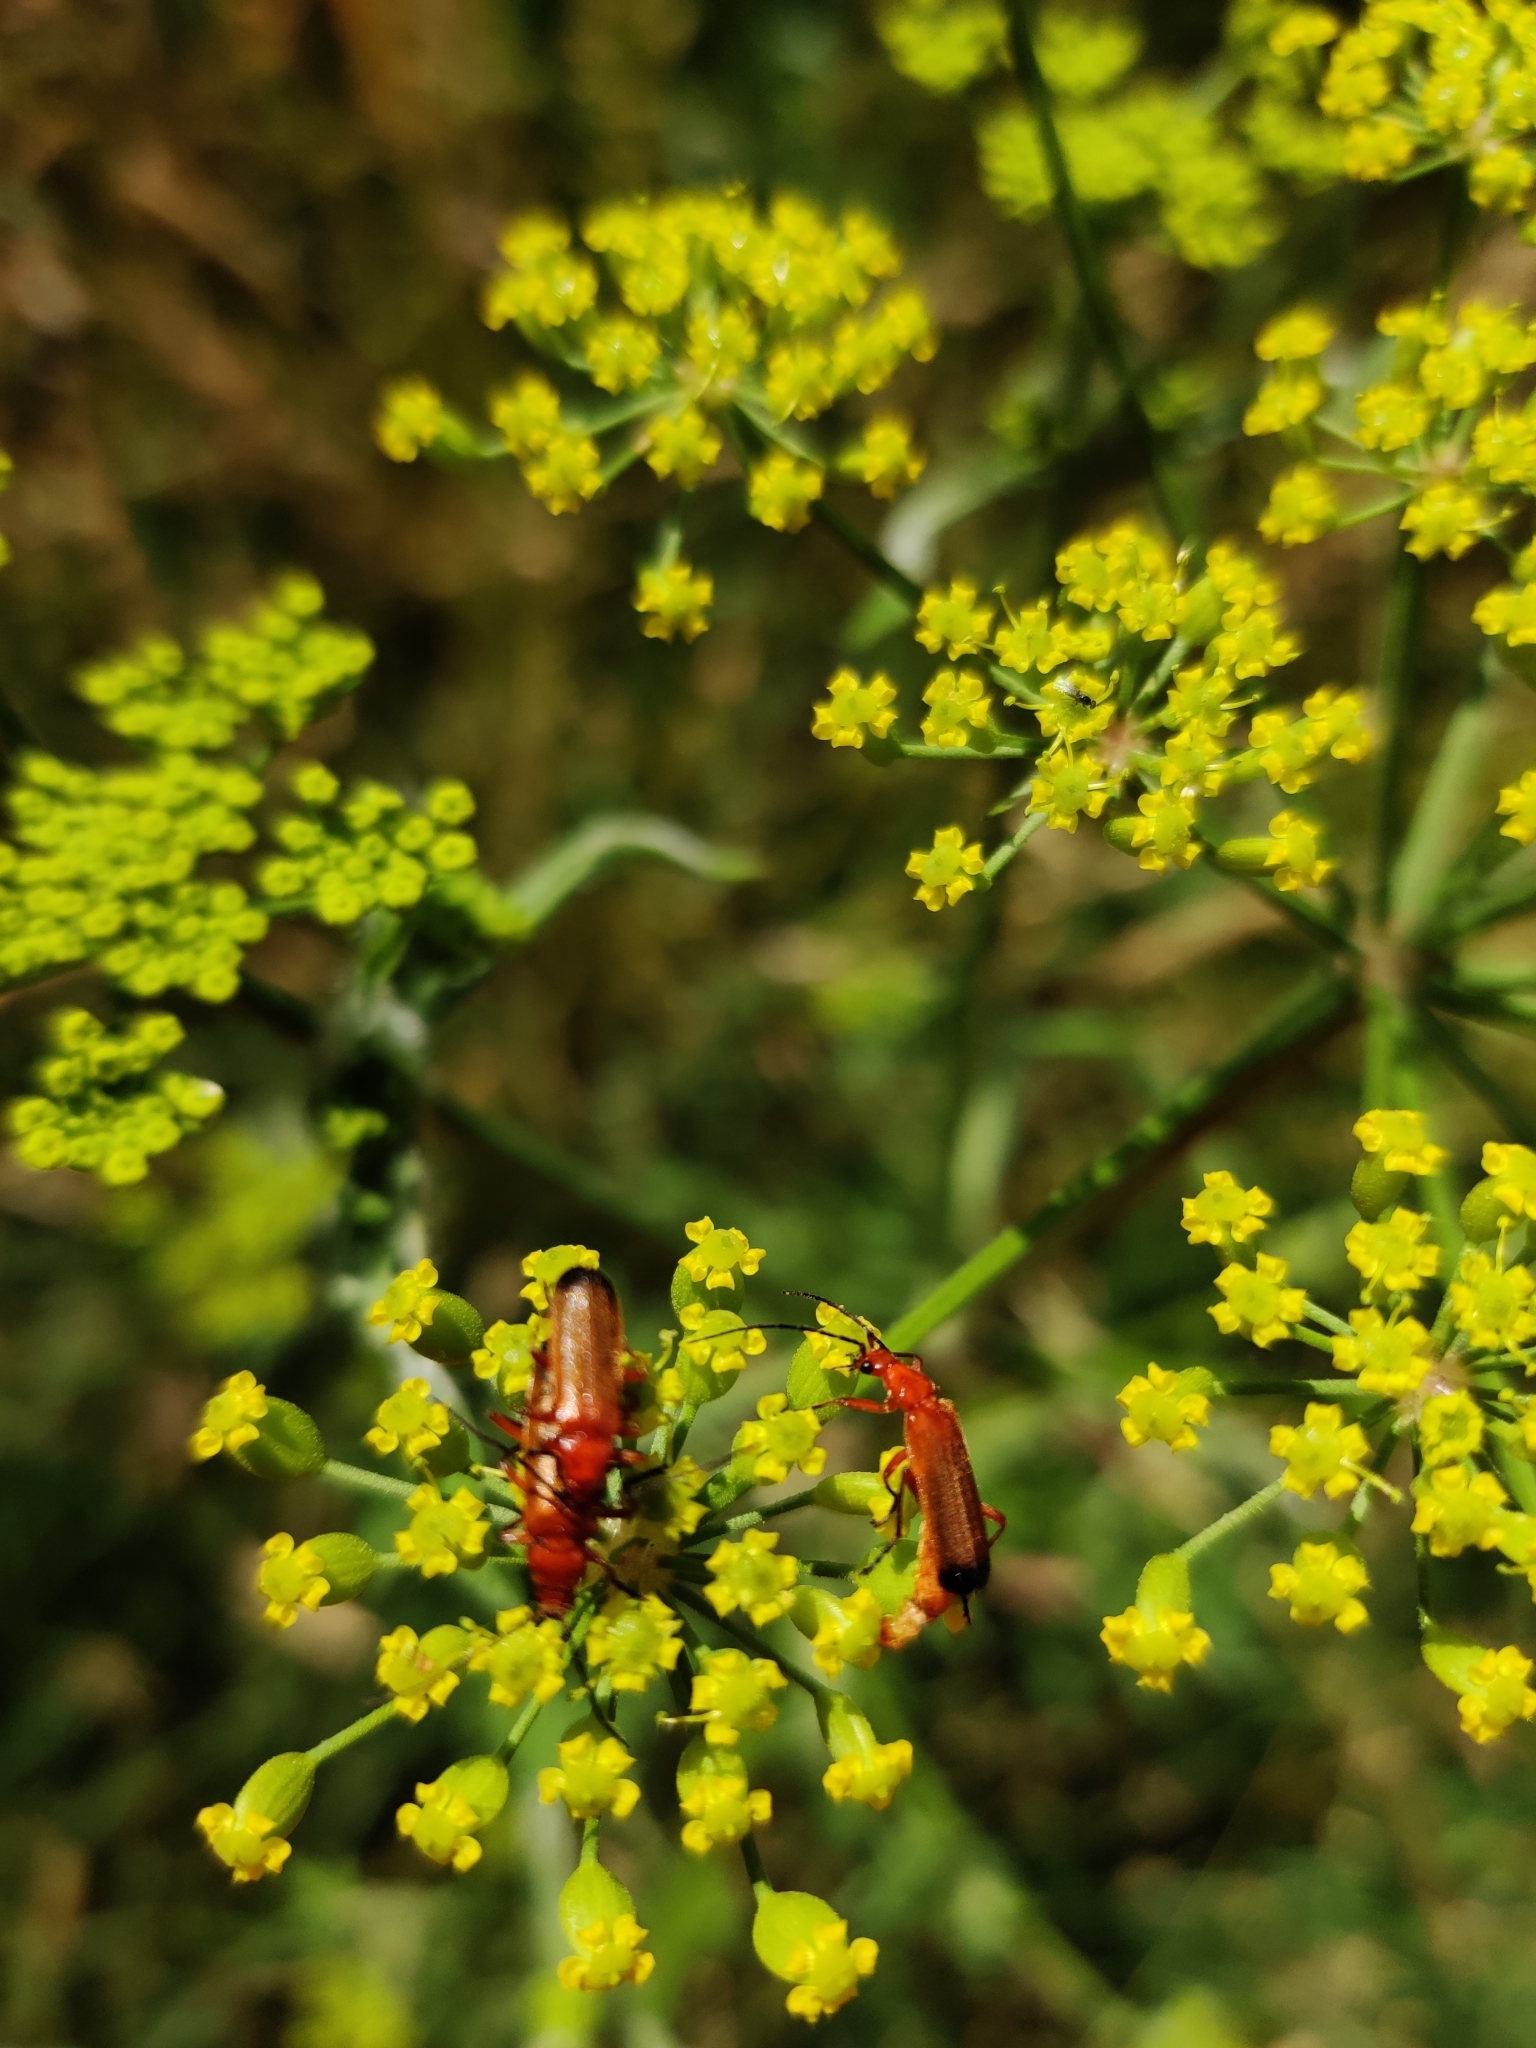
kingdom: Animalia
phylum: Arthropoda
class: Insecta
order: Coleoptera
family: Cantharidae
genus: Rhagonycha
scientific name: Rhagonycha fulva
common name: Common red soldier beetle
